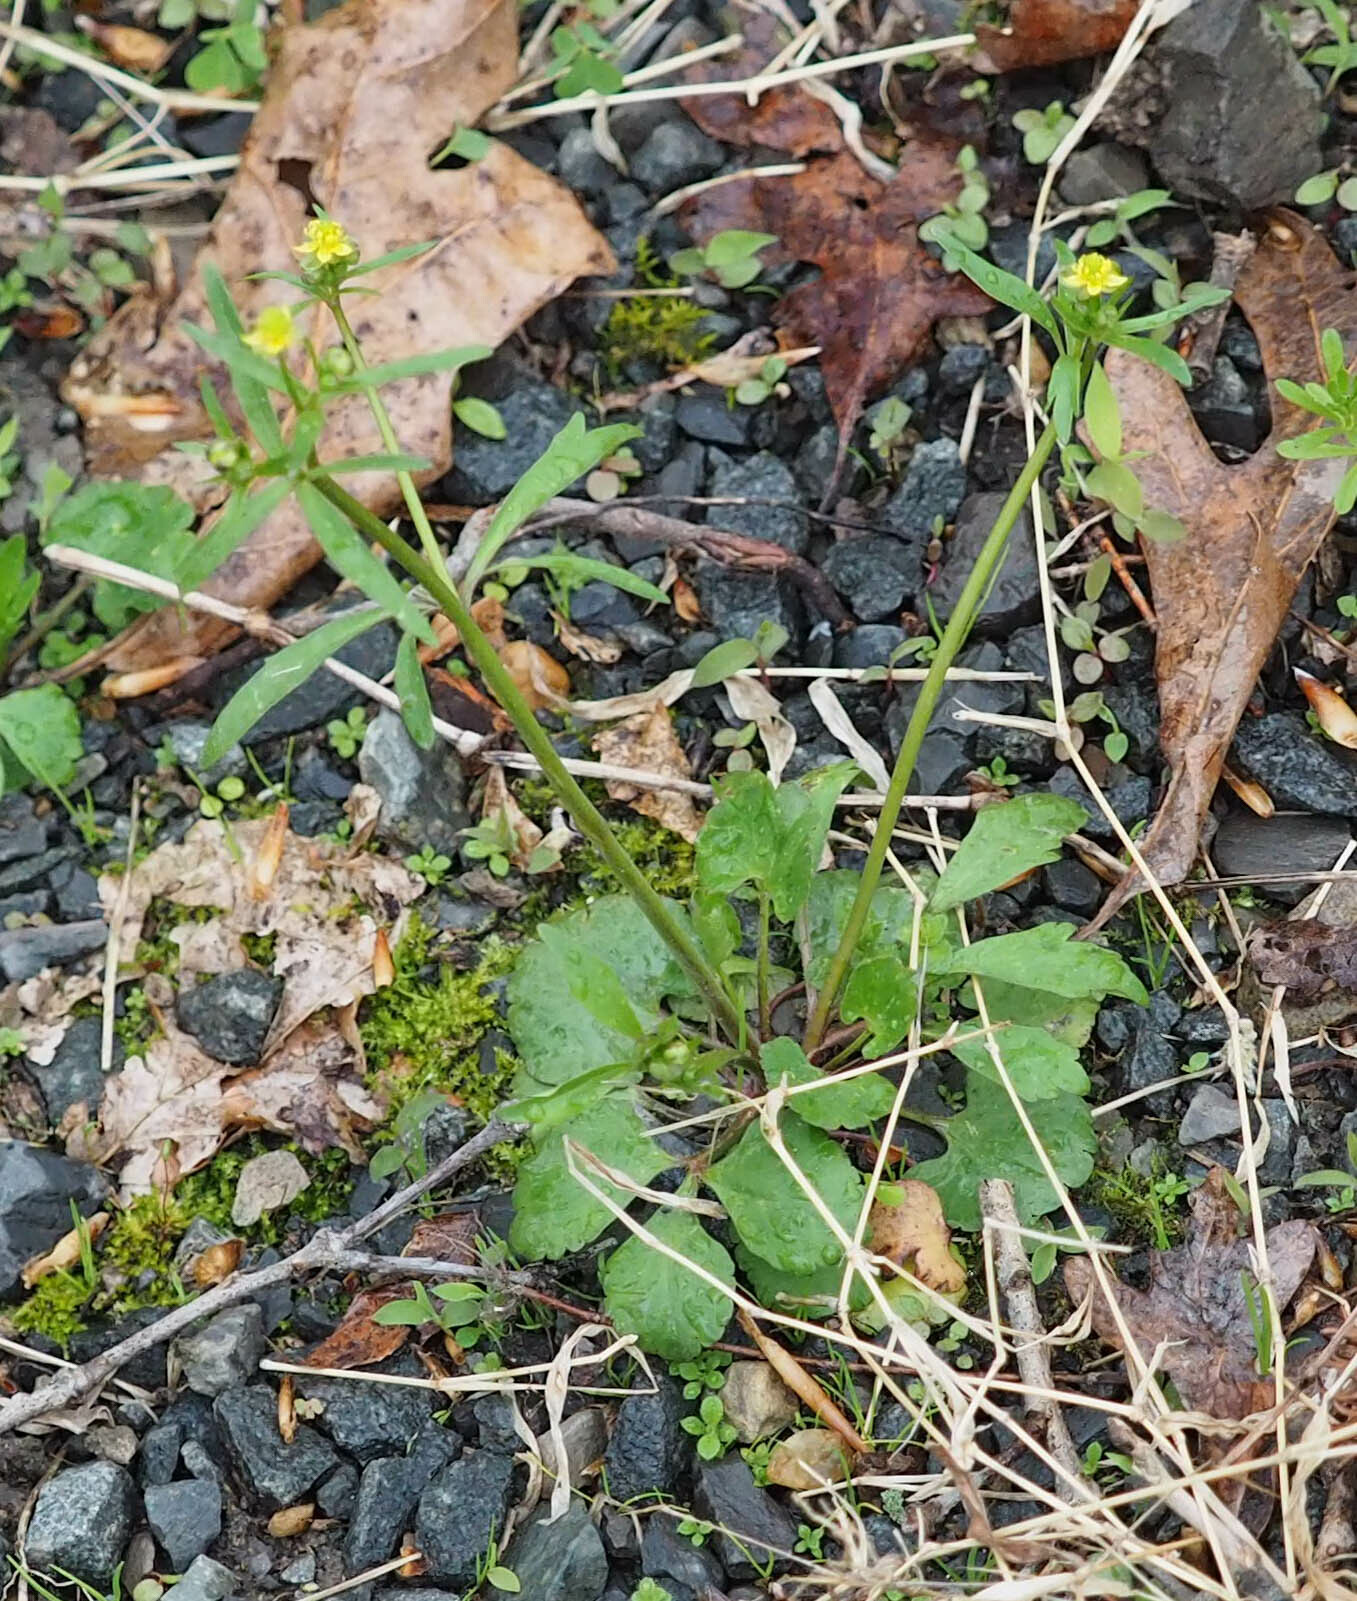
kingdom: Plantae
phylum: Tracheophyta
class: Magnoliopsida
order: Ranunculales
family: Ranunculaceae
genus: Ranunculus
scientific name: Ranunculus abortivus
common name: Early wood buttercup
